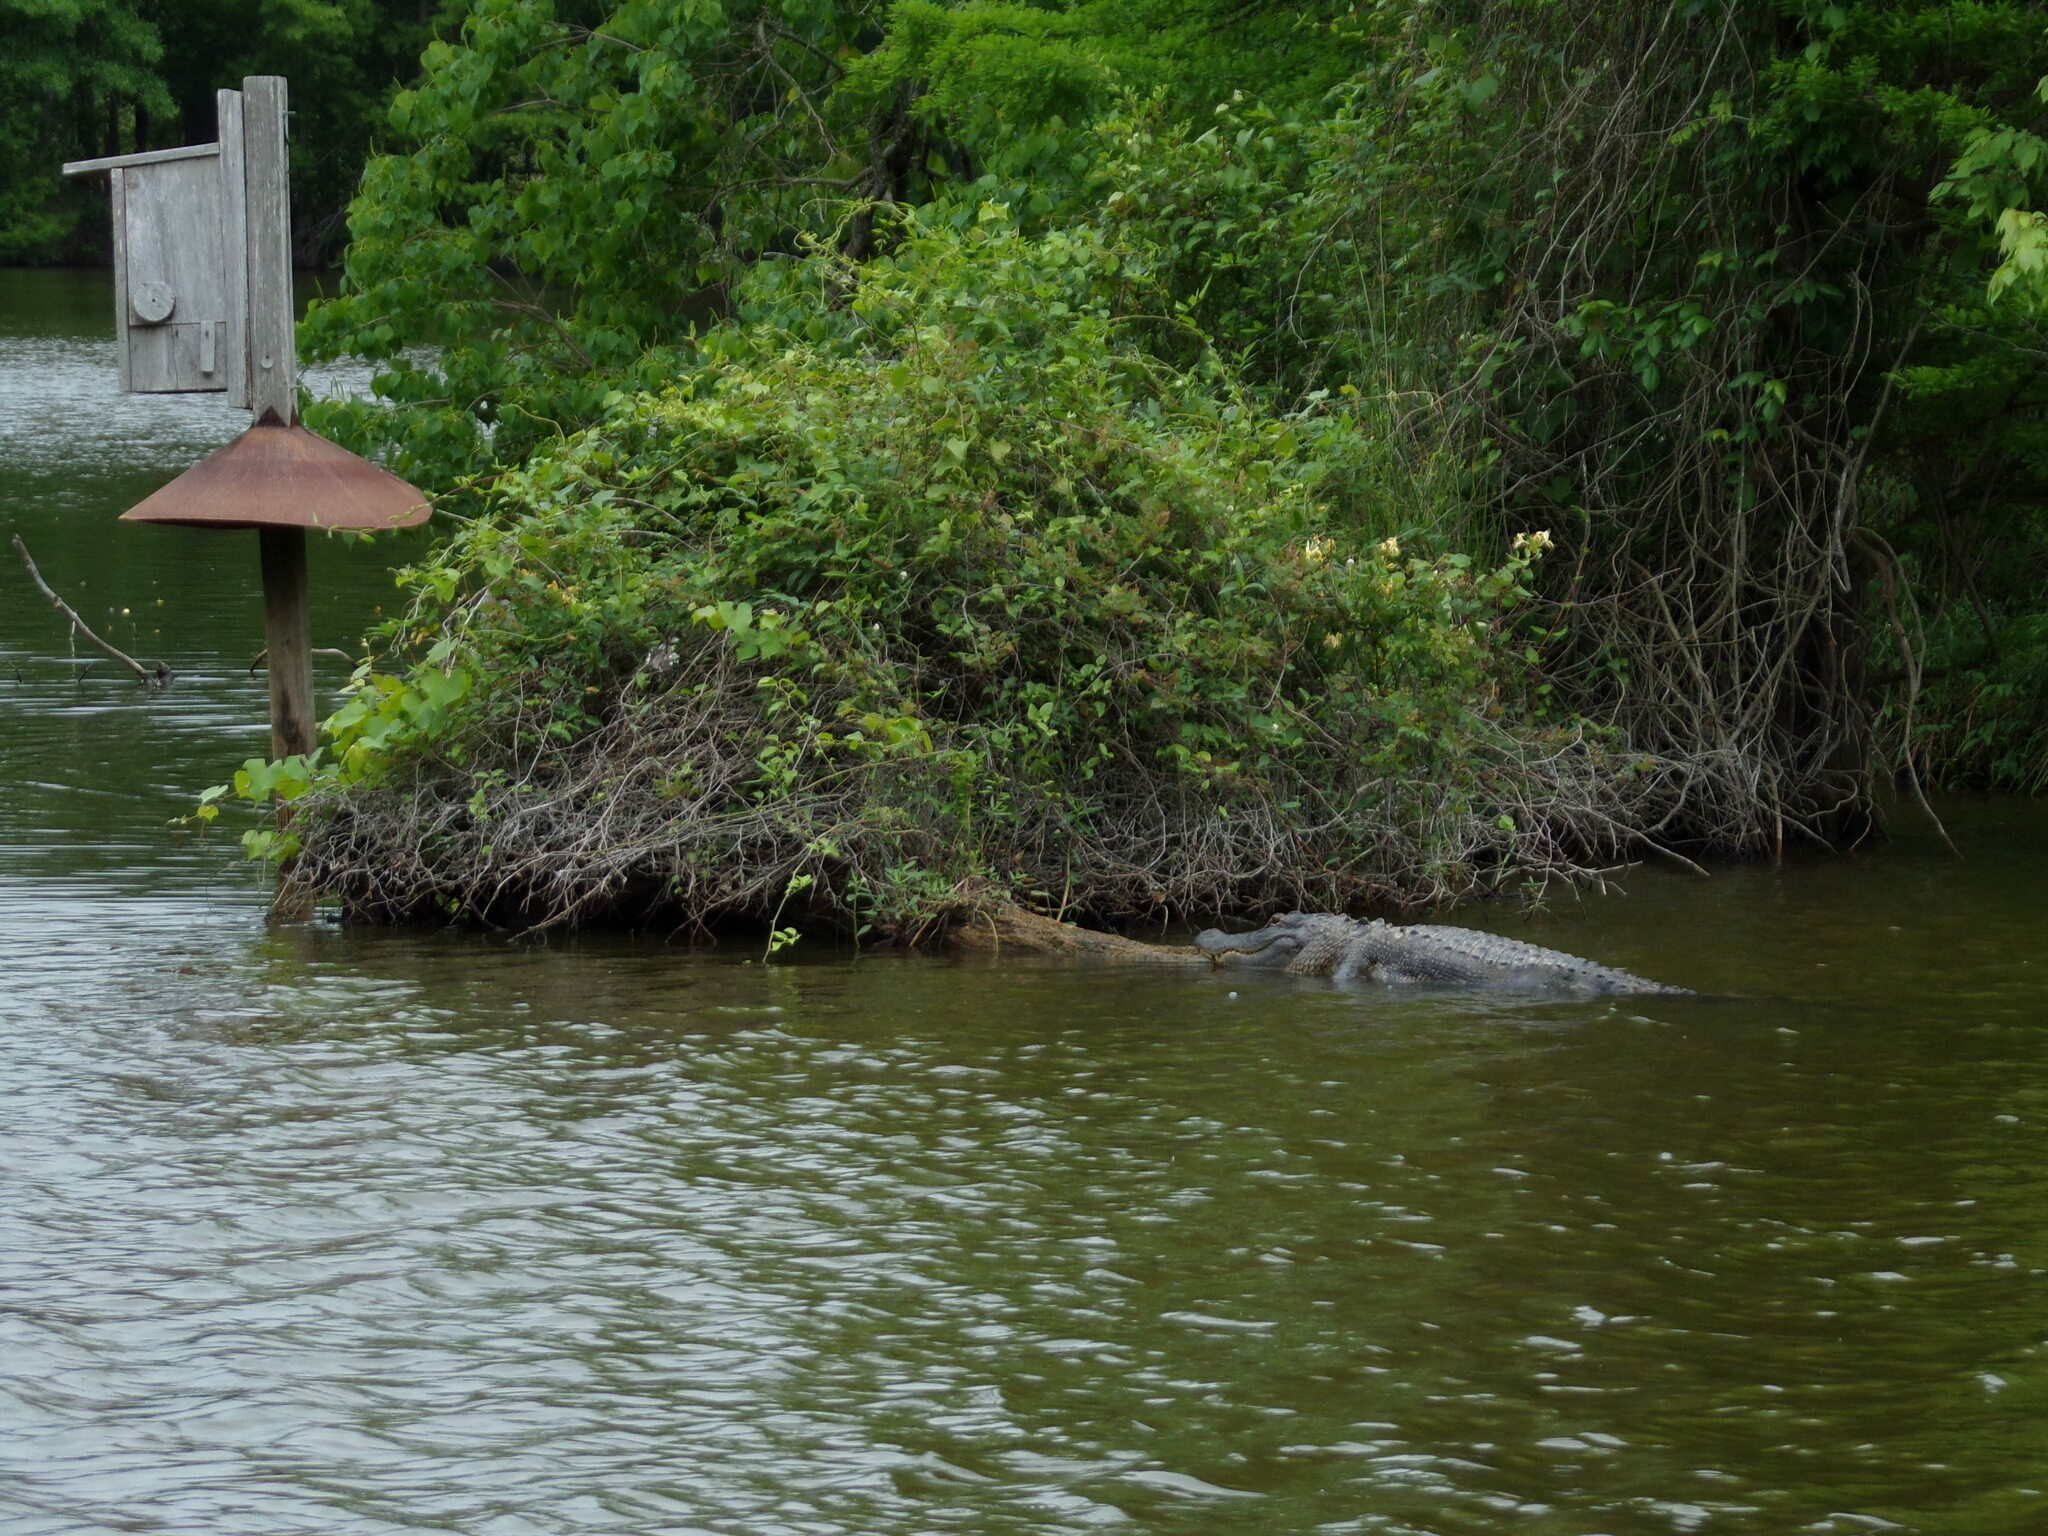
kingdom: Animalia
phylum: Chordata
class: Crocodylia
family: Alligatoridae
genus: Alligator
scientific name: Alligator mississippiensis
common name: American alligator
